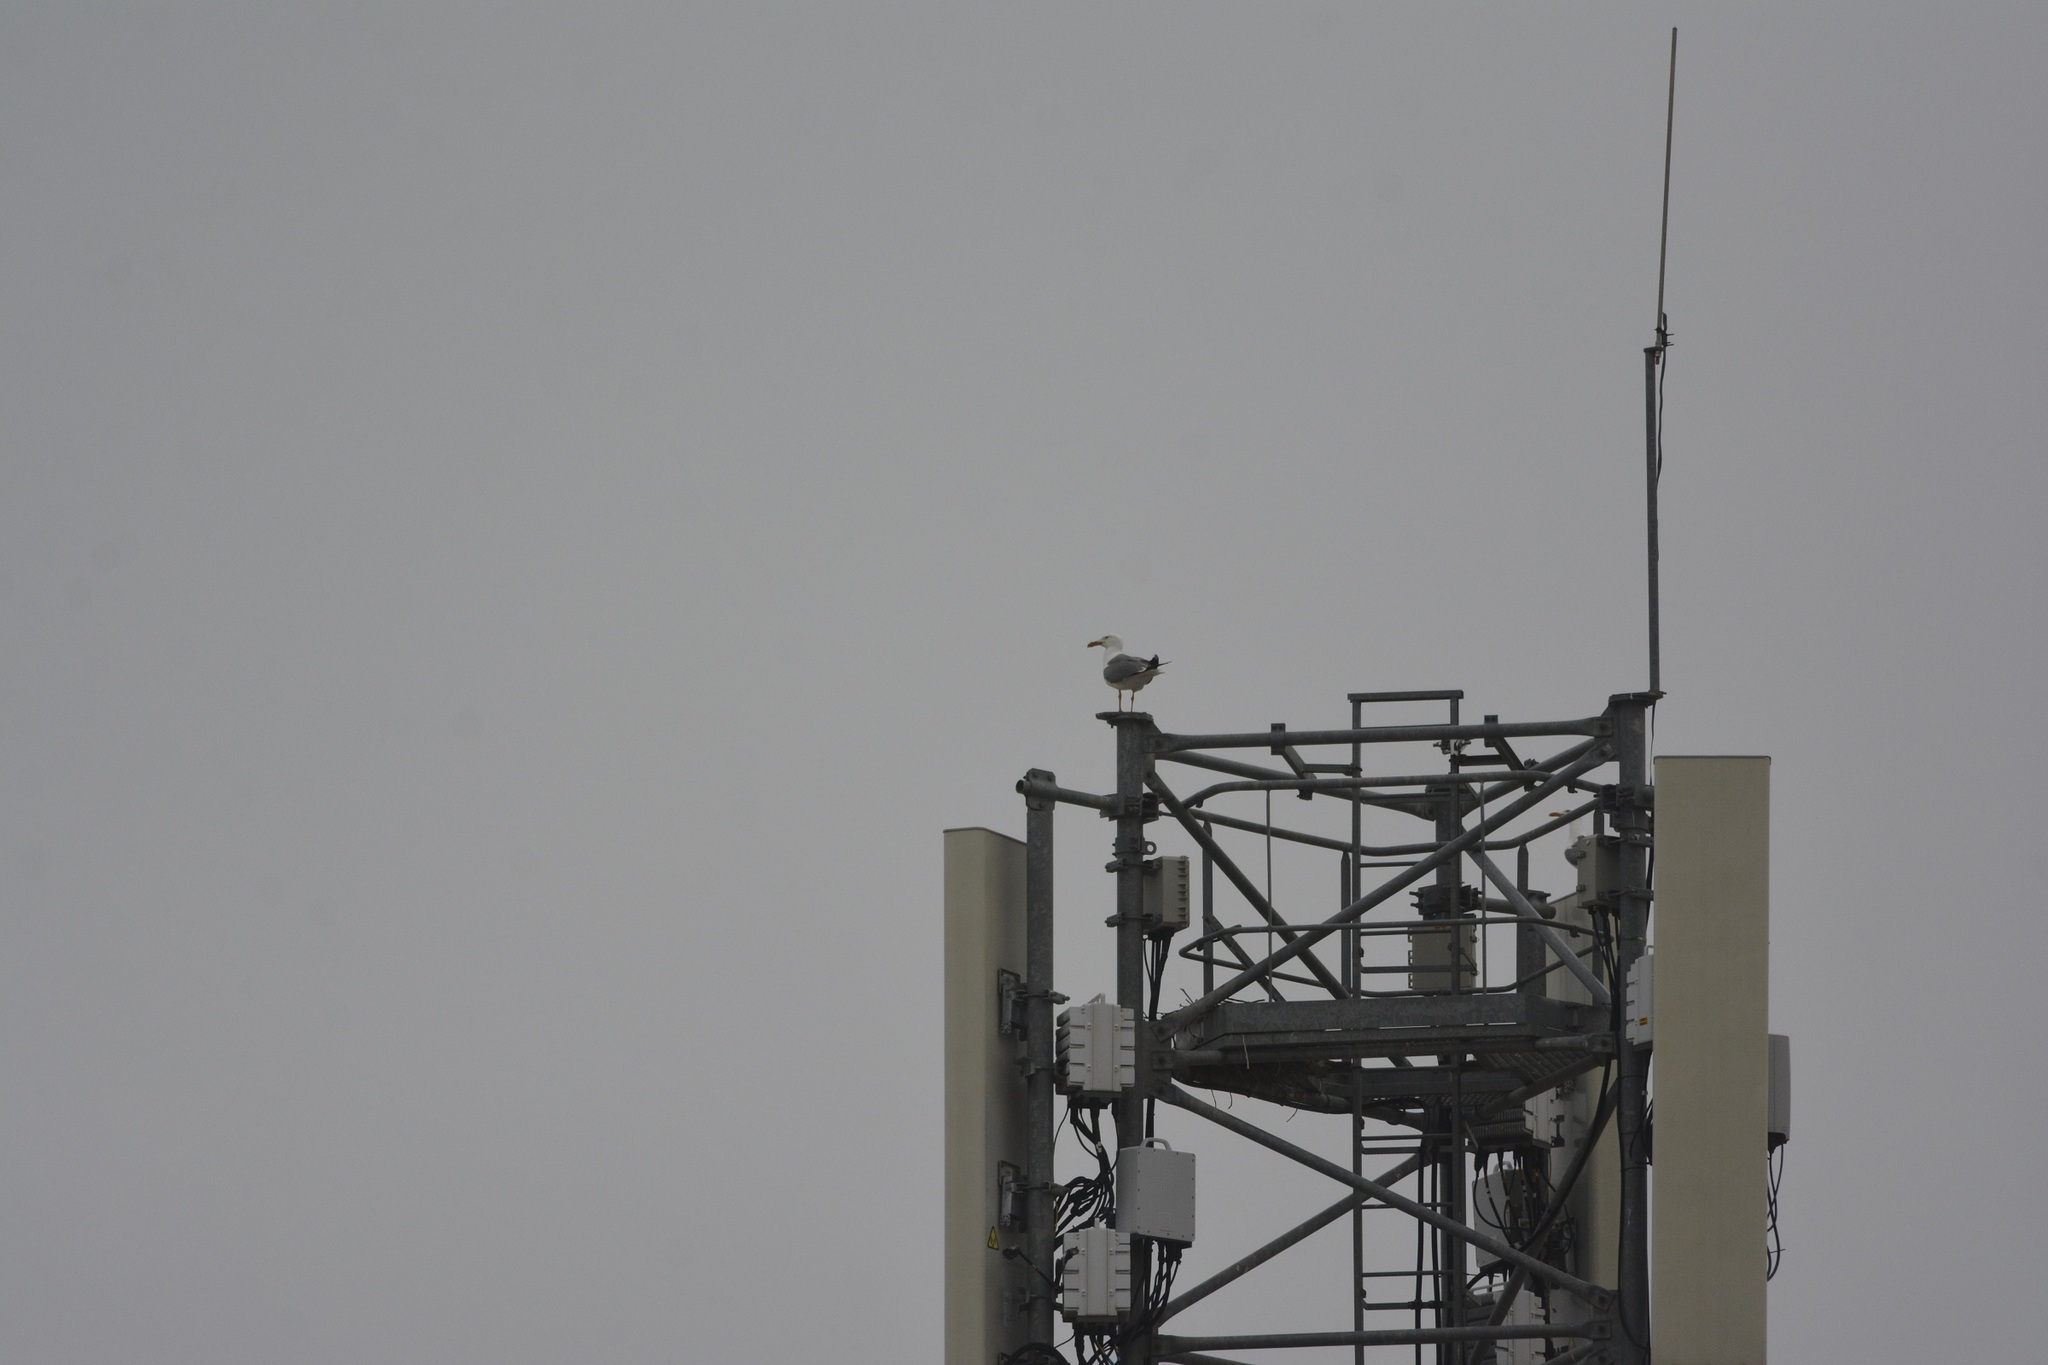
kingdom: Animalia
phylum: Chordata
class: Aves
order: Charadriiformes
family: Laridae
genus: Larus
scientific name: Larus michahellis
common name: Yellow-legged gull
